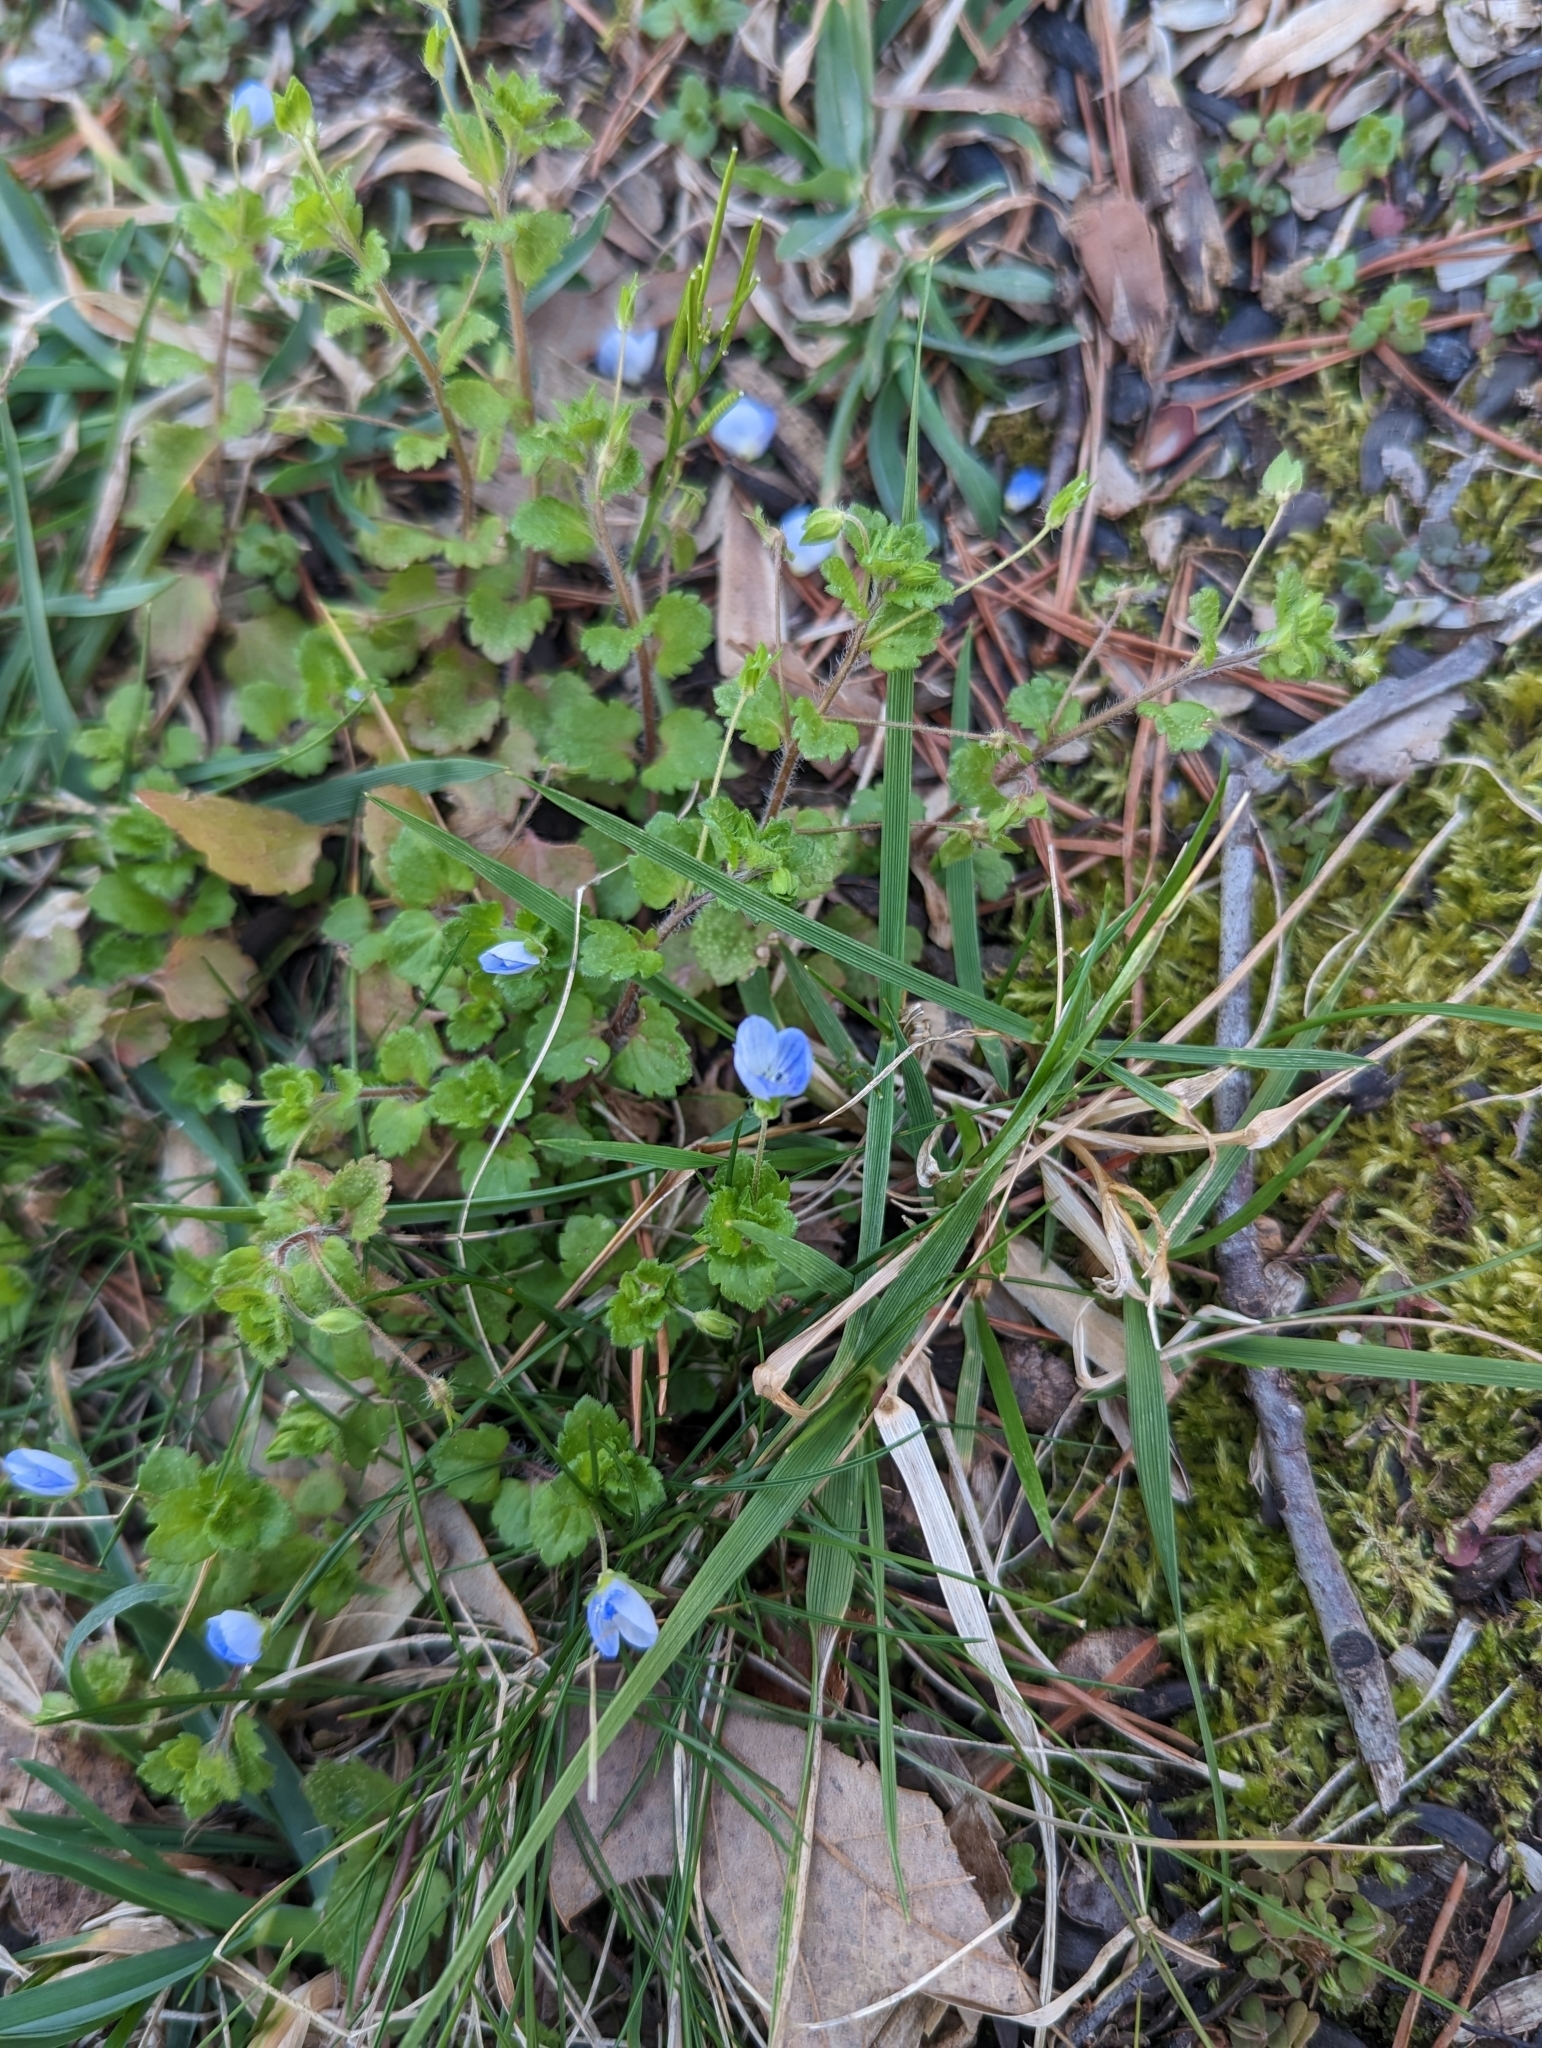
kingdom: Plantae
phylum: Tracheophyta
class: Magnoliopsida
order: Lamiales
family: Plantaginaceae
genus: Veronica
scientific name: Veronica persica
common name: Common field-speedwell
